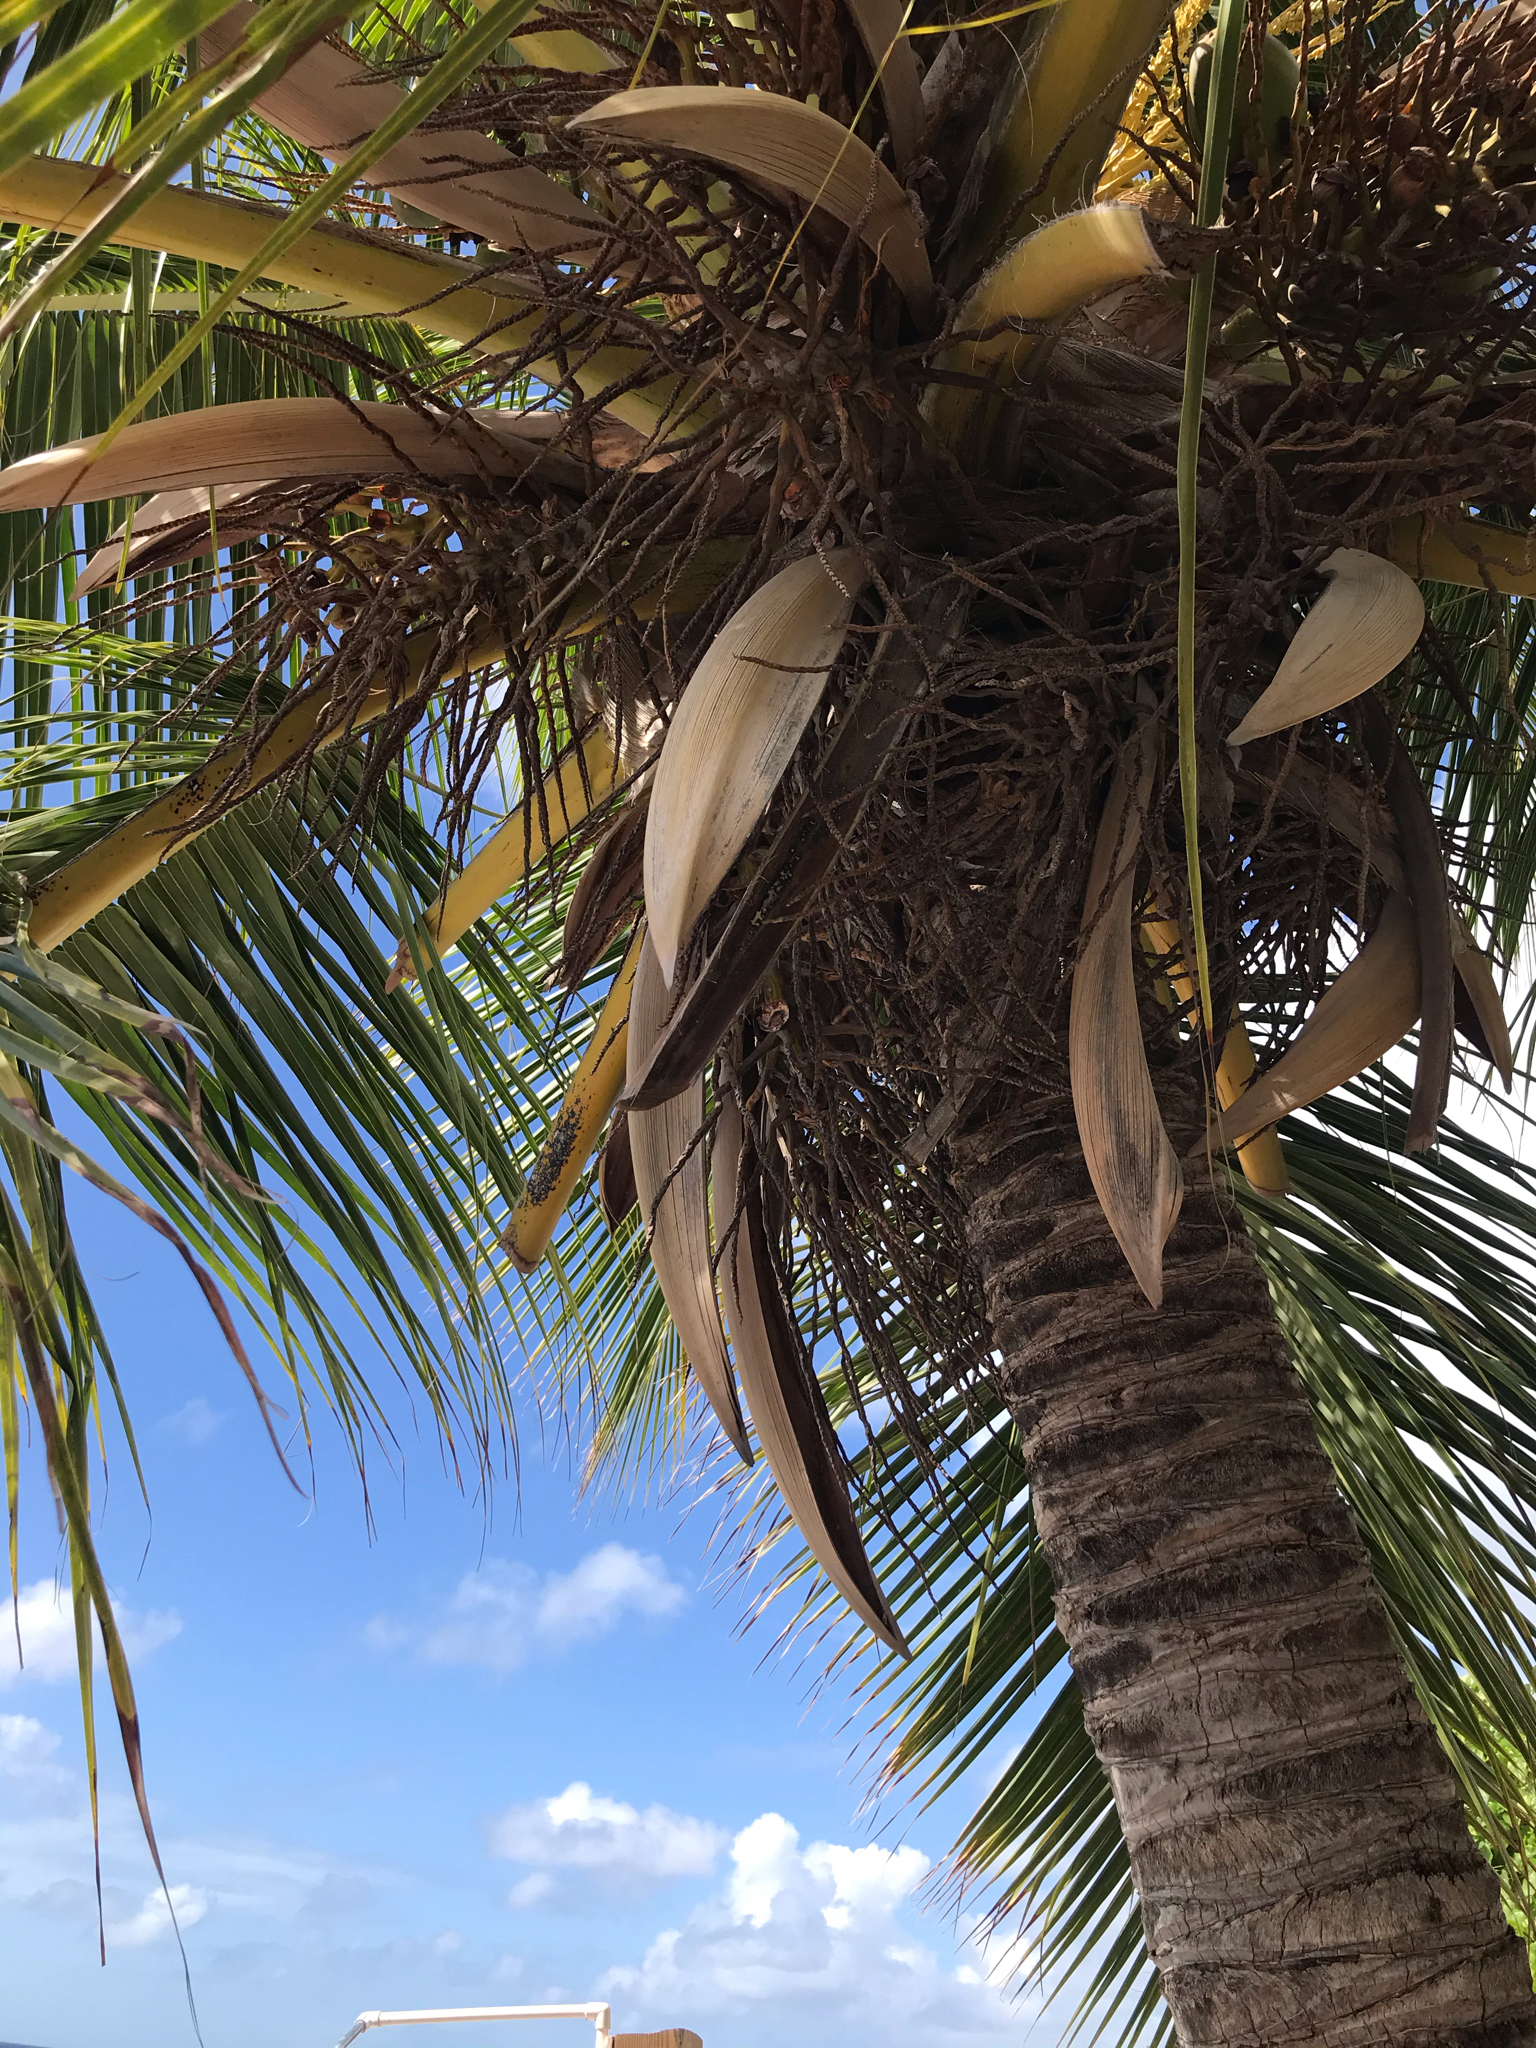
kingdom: Plantae
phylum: Tracheophyta
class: Liliopsida
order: Arecales
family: Arecaceae
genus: Cocos
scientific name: Cocos nucifera
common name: Coconut palm
